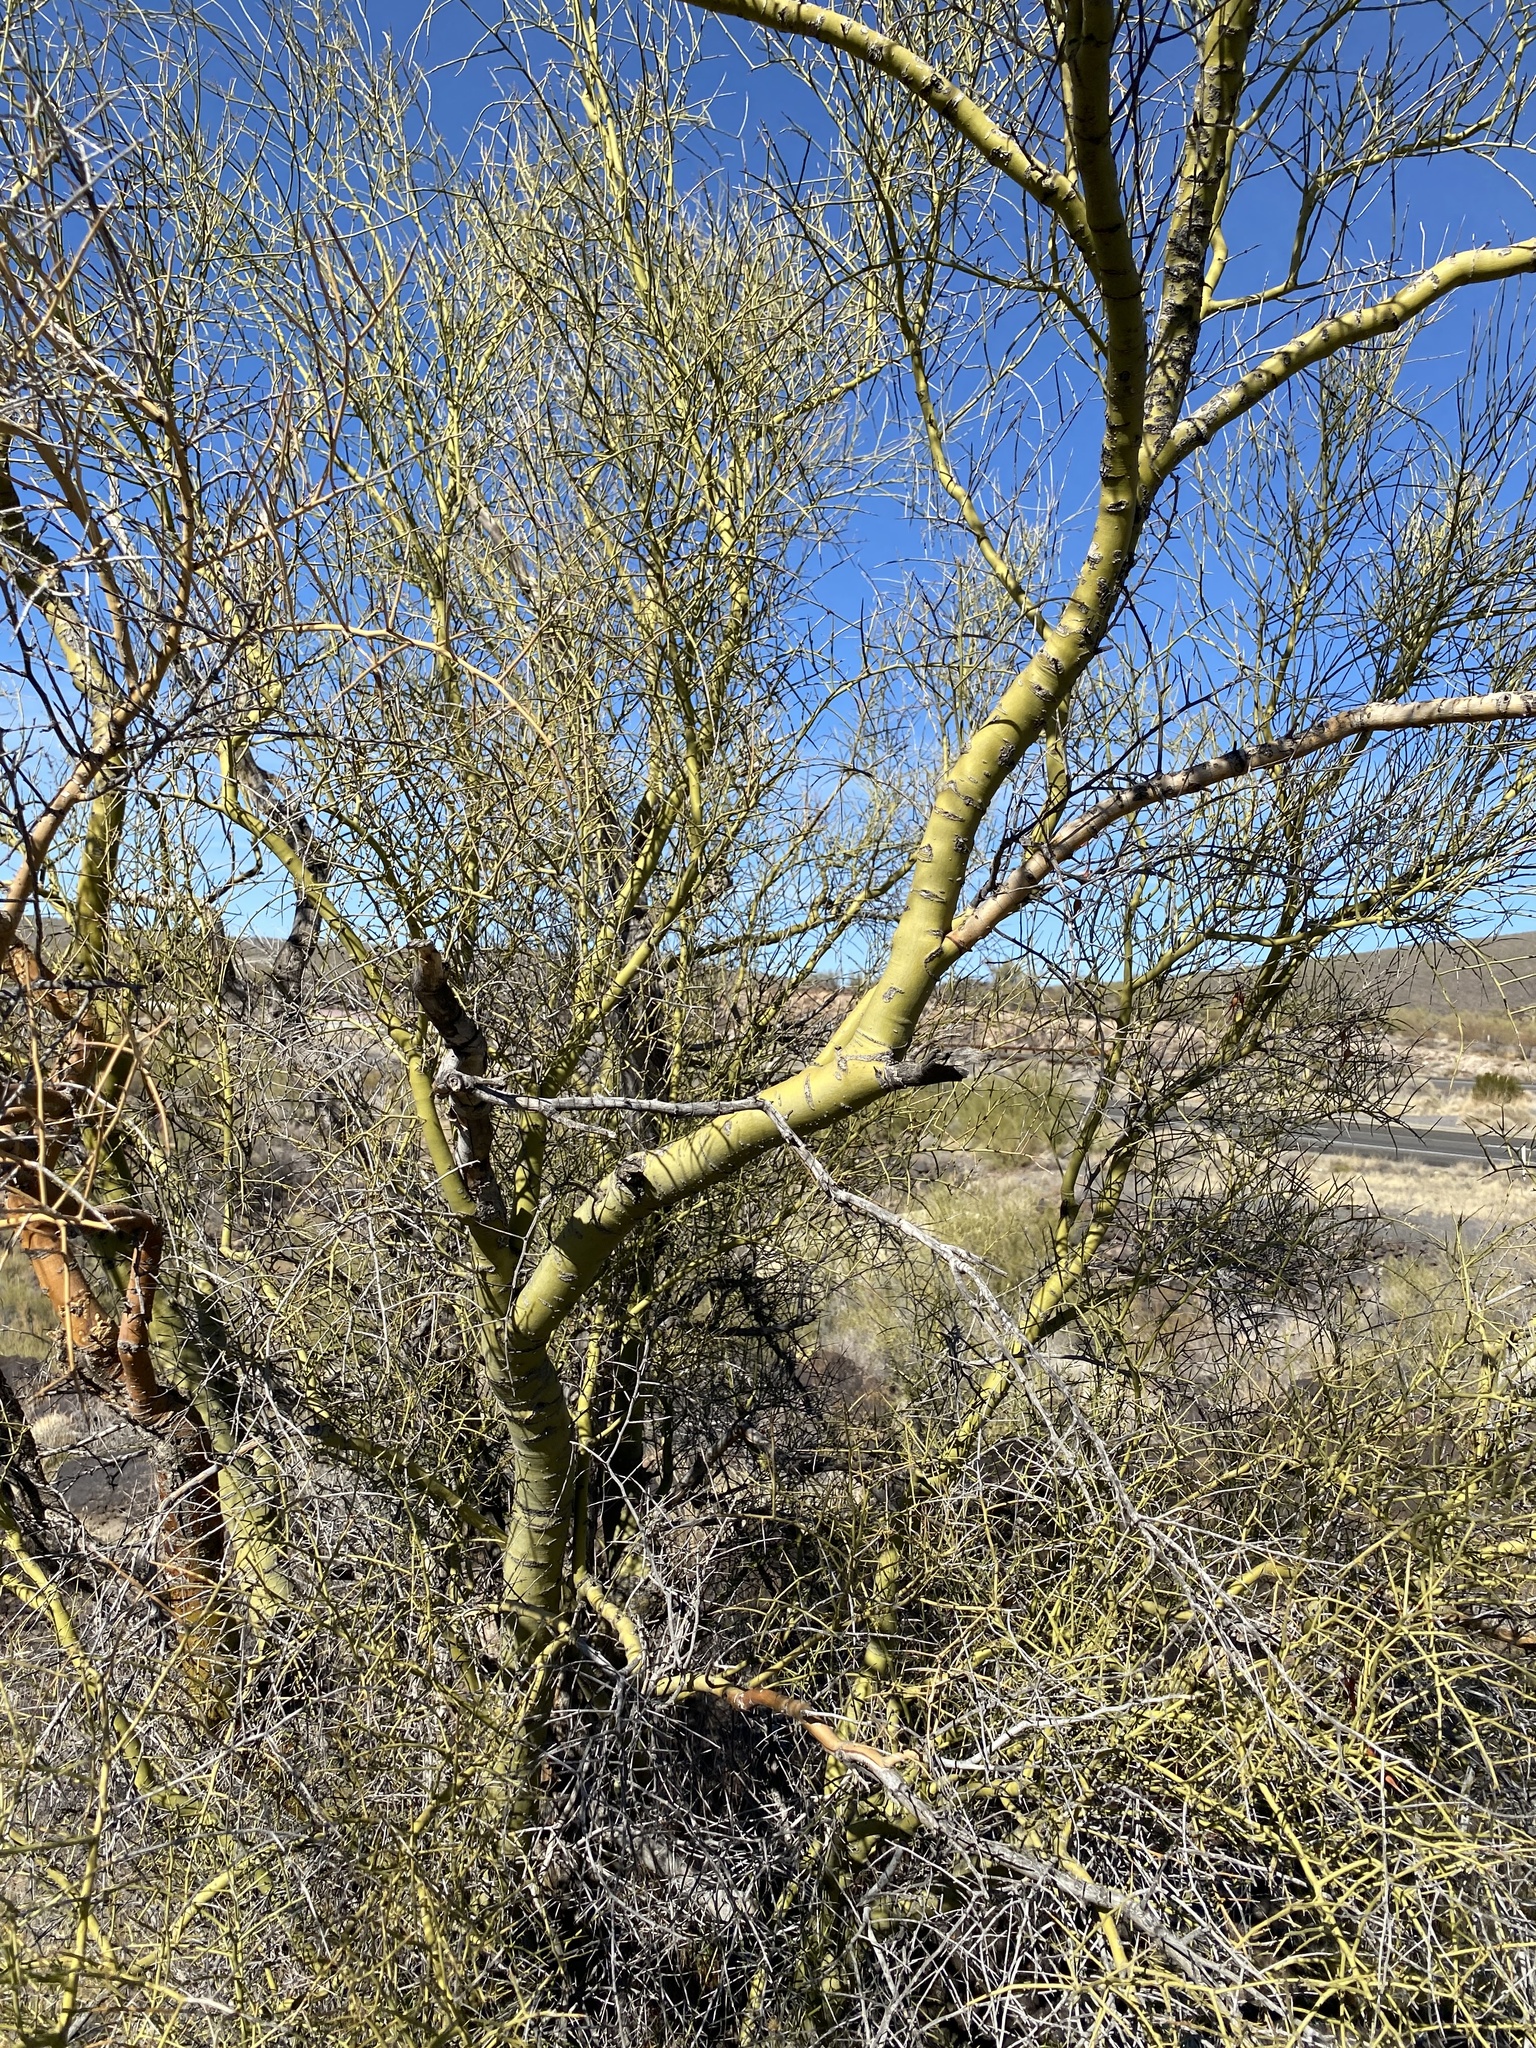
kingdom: Plantae
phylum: Tracheophyta
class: Magnoliopsida
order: Fabales
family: Fabaceae
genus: Parkinsonia
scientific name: Parkinsonia microphylla
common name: Yellow paloverde
